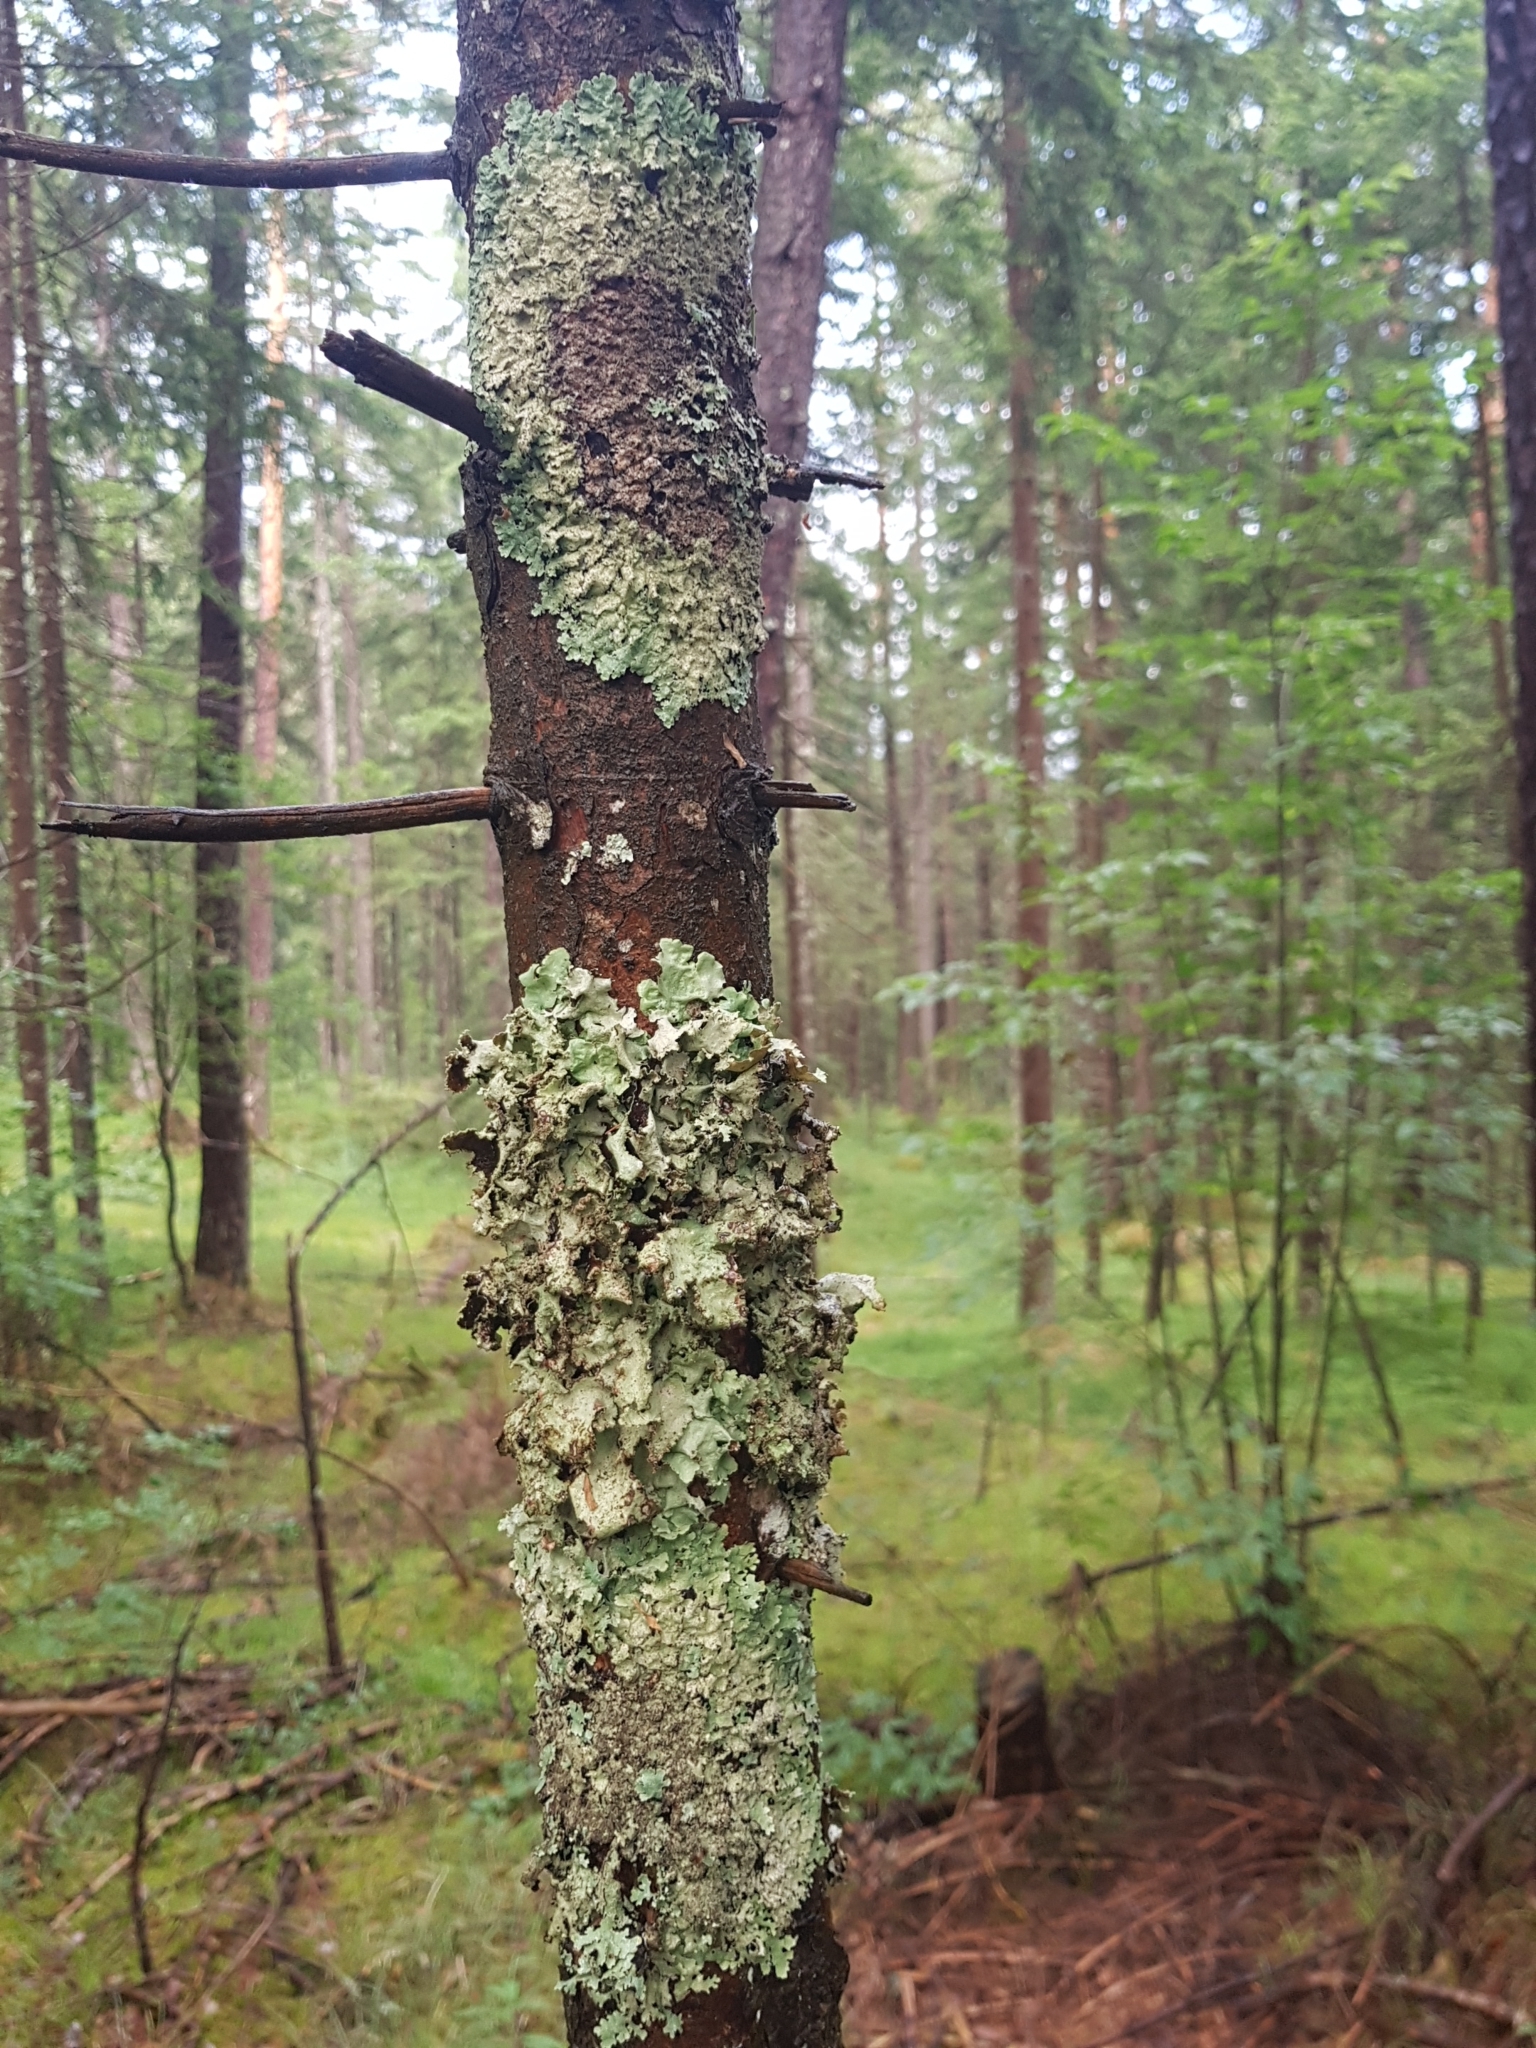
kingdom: Fungi
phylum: Ascomycota
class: Lecanoromycetes
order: Lecanorales
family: Parmeliaceae
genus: Platismatia
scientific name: Platismatia glauca
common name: Varied rag lichen
